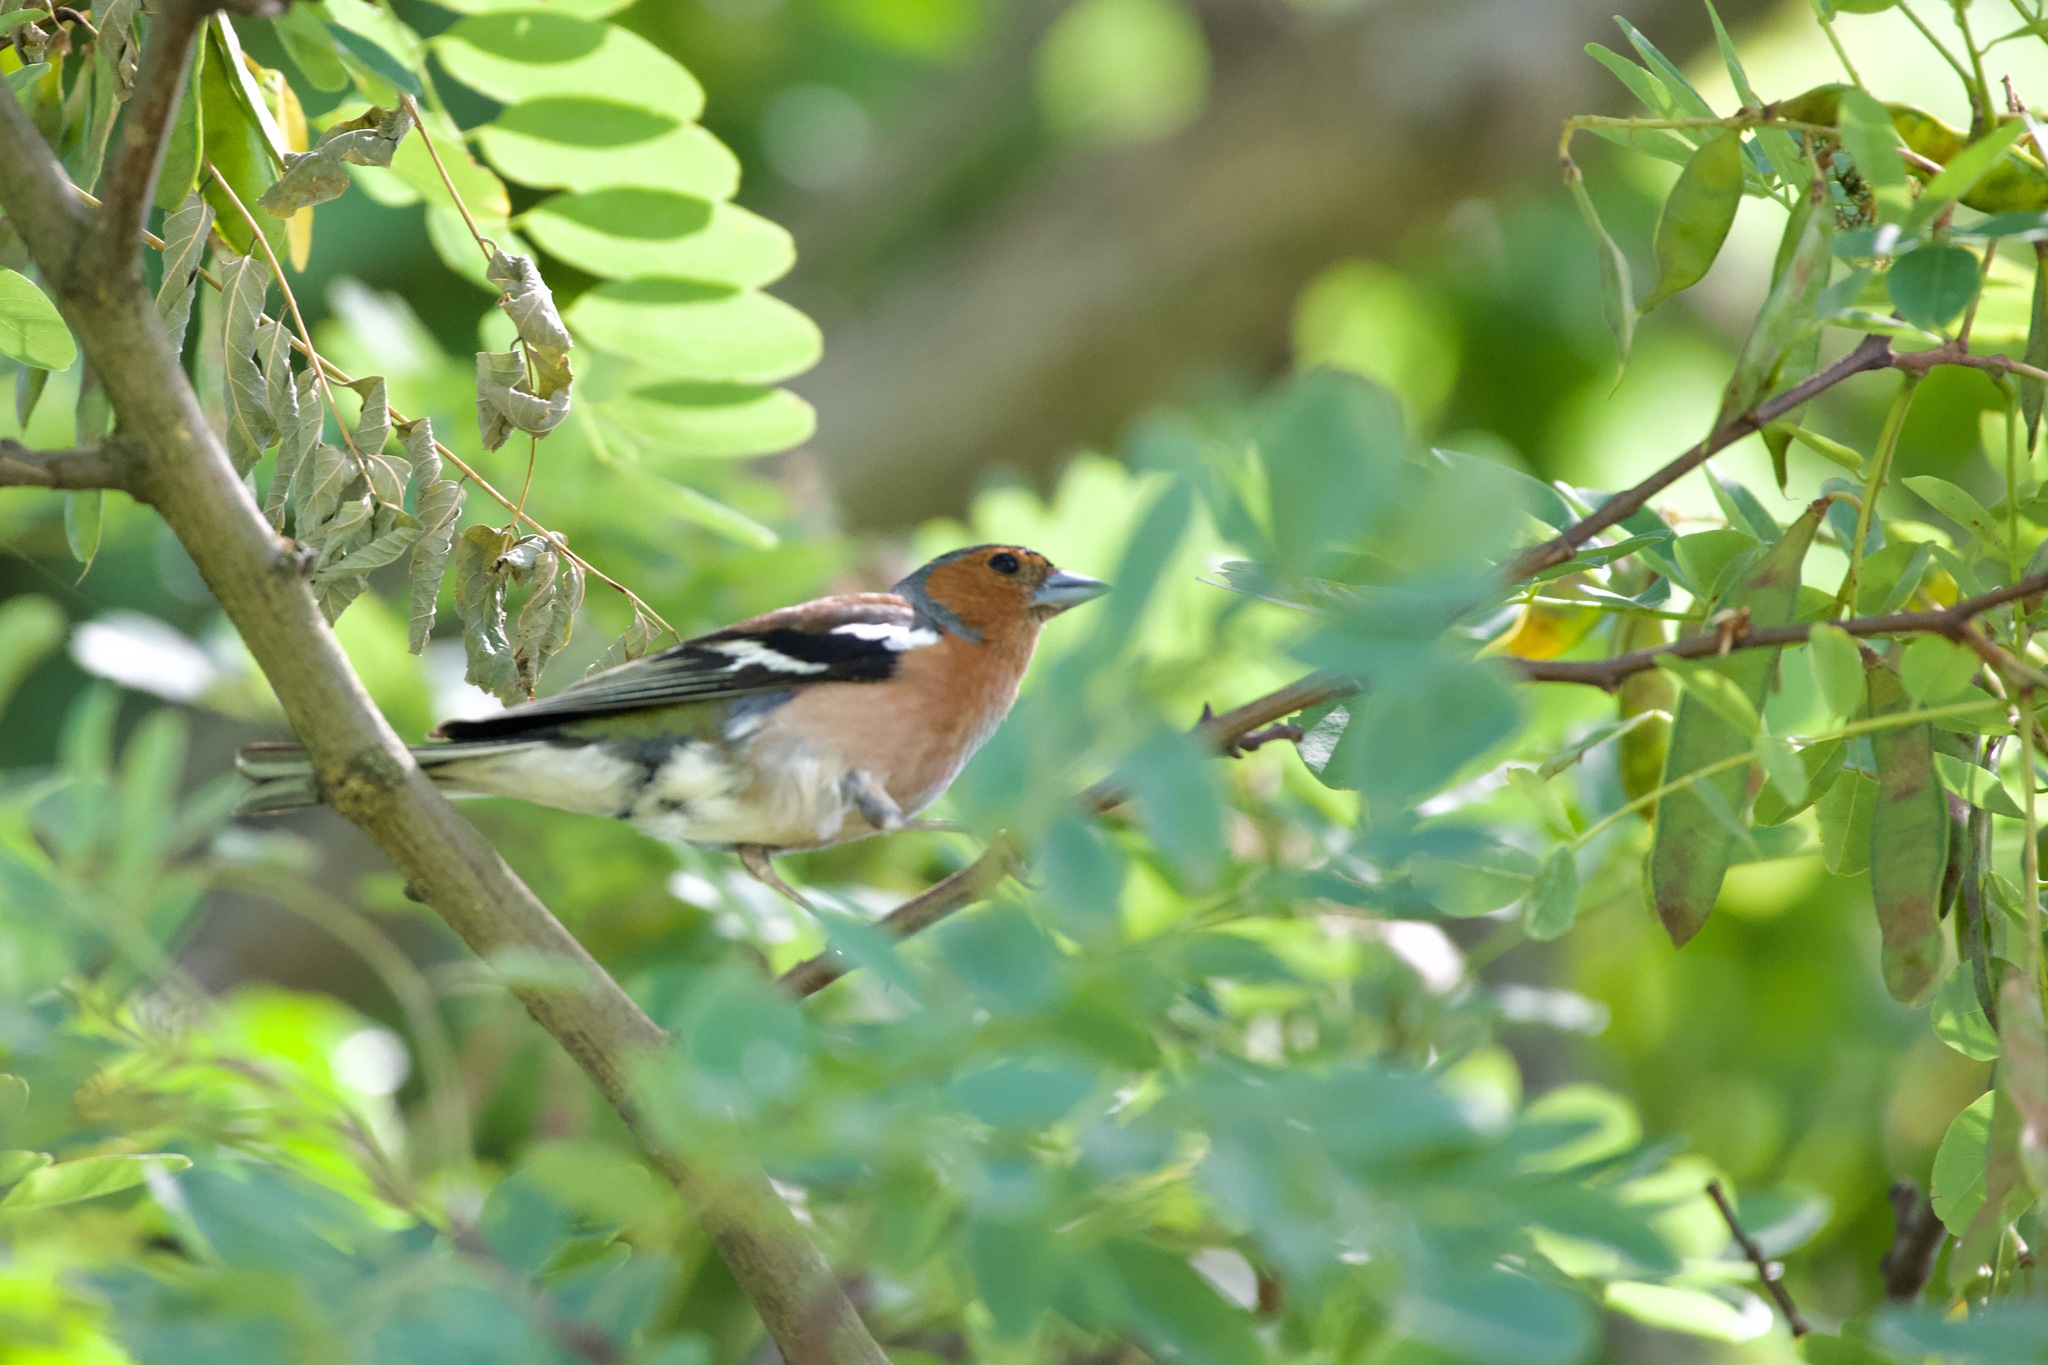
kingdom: Animalia
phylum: Chordata
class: Aves
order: Passeriformes
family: Fringillidae
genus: Fringilla
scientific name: Fringilla coelebs
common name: Common chaffinch
